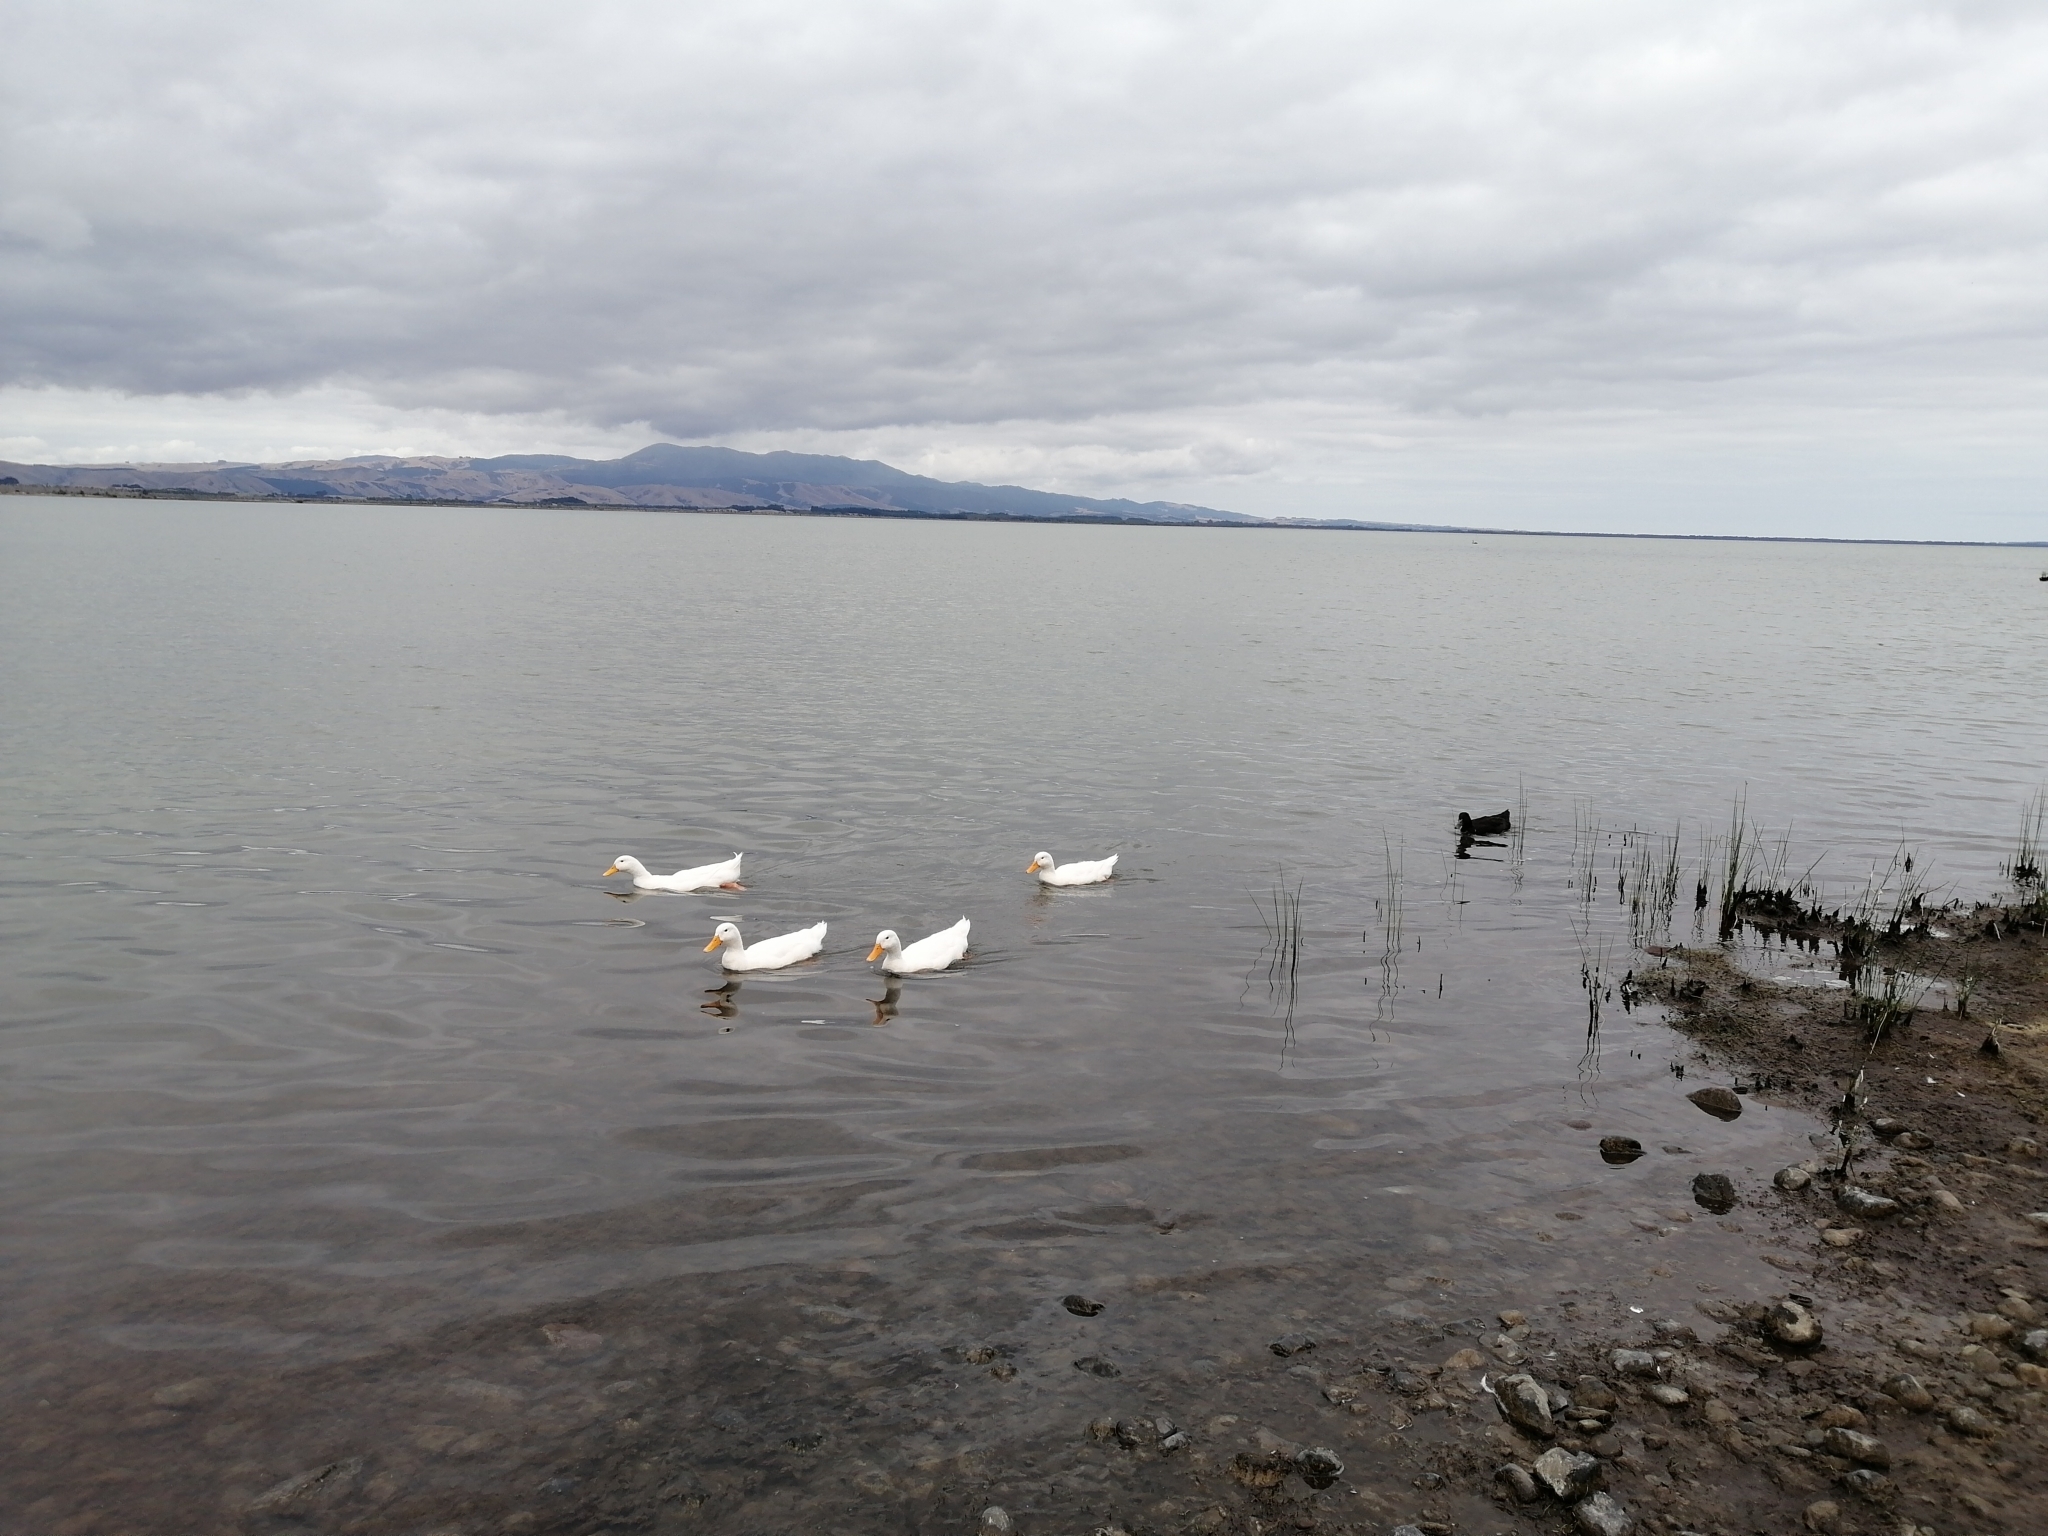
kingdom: Animalia
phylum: Chordata
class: Aves
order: Anseriformes
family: Anatidae
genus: Anas
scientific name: Anas platyrhynchos
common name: Mallard
